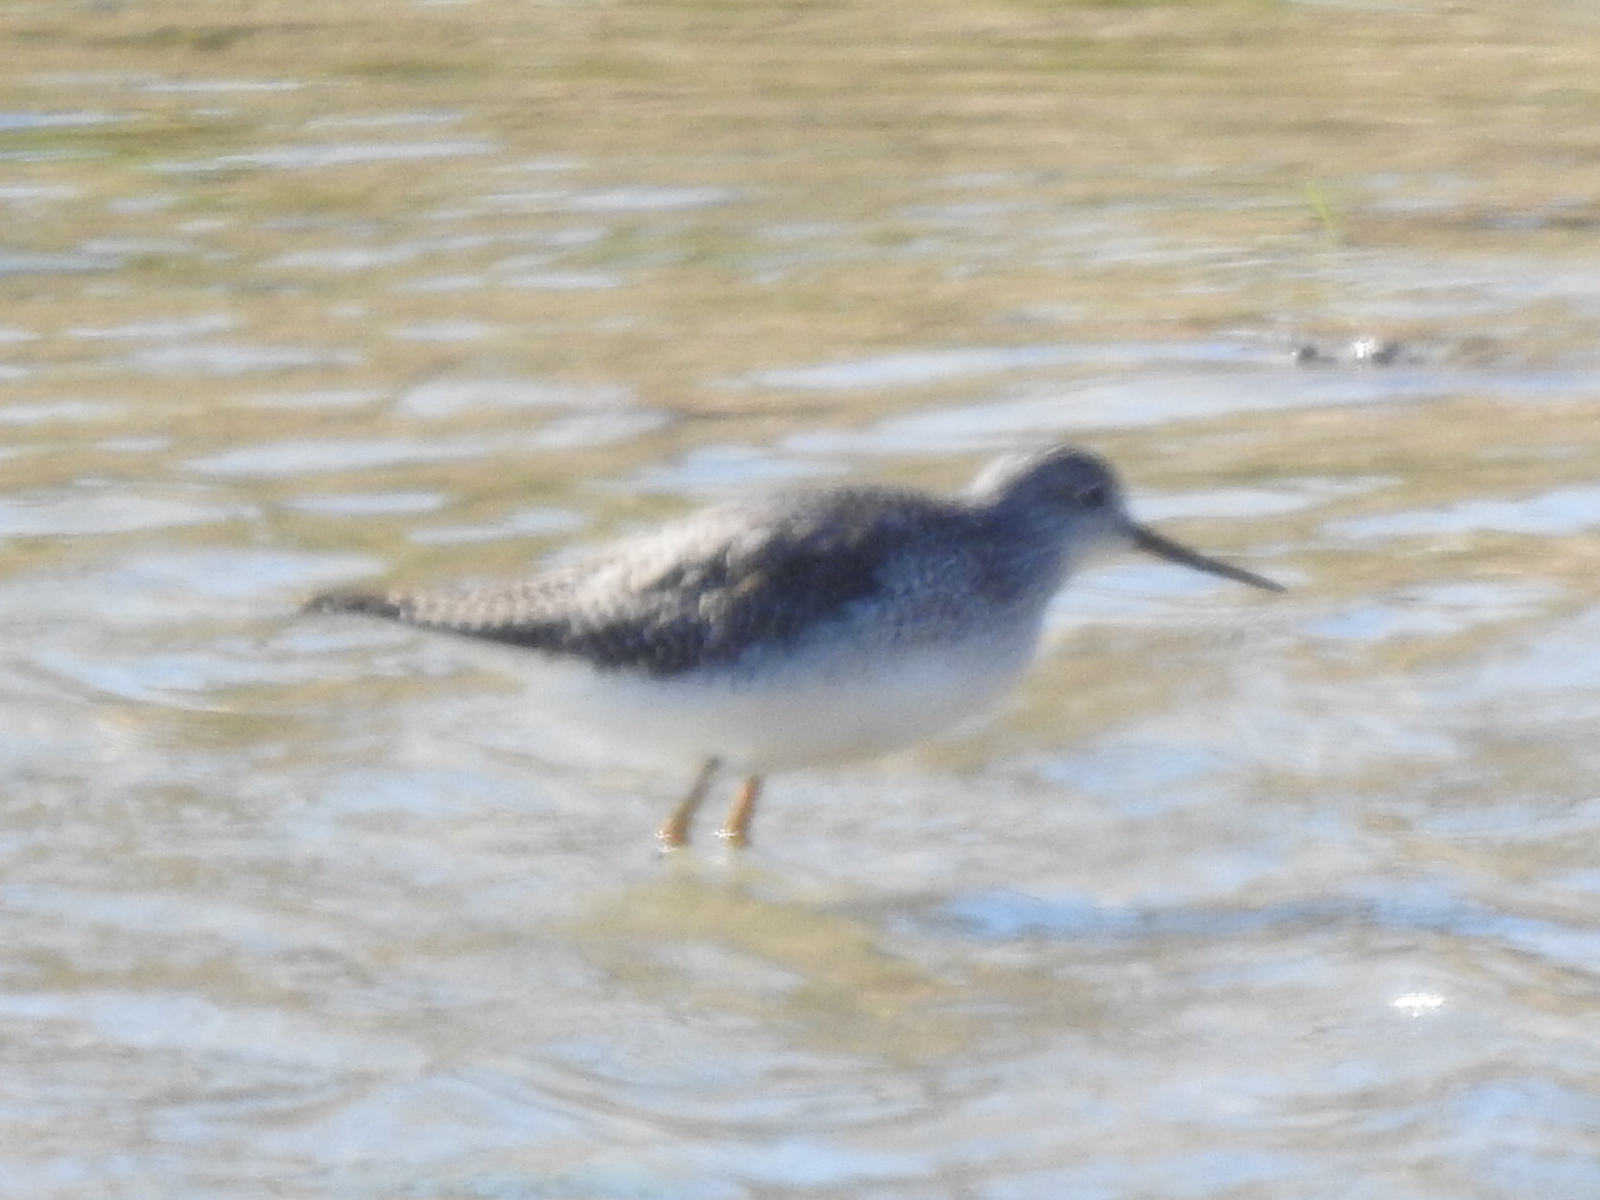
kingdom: Animalia
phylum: Chordata
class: Aves
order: Charadriiformes
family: Scolopacidae
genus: Tringa
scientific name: Tringa melanoleuca
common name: Greater yellowlegs
